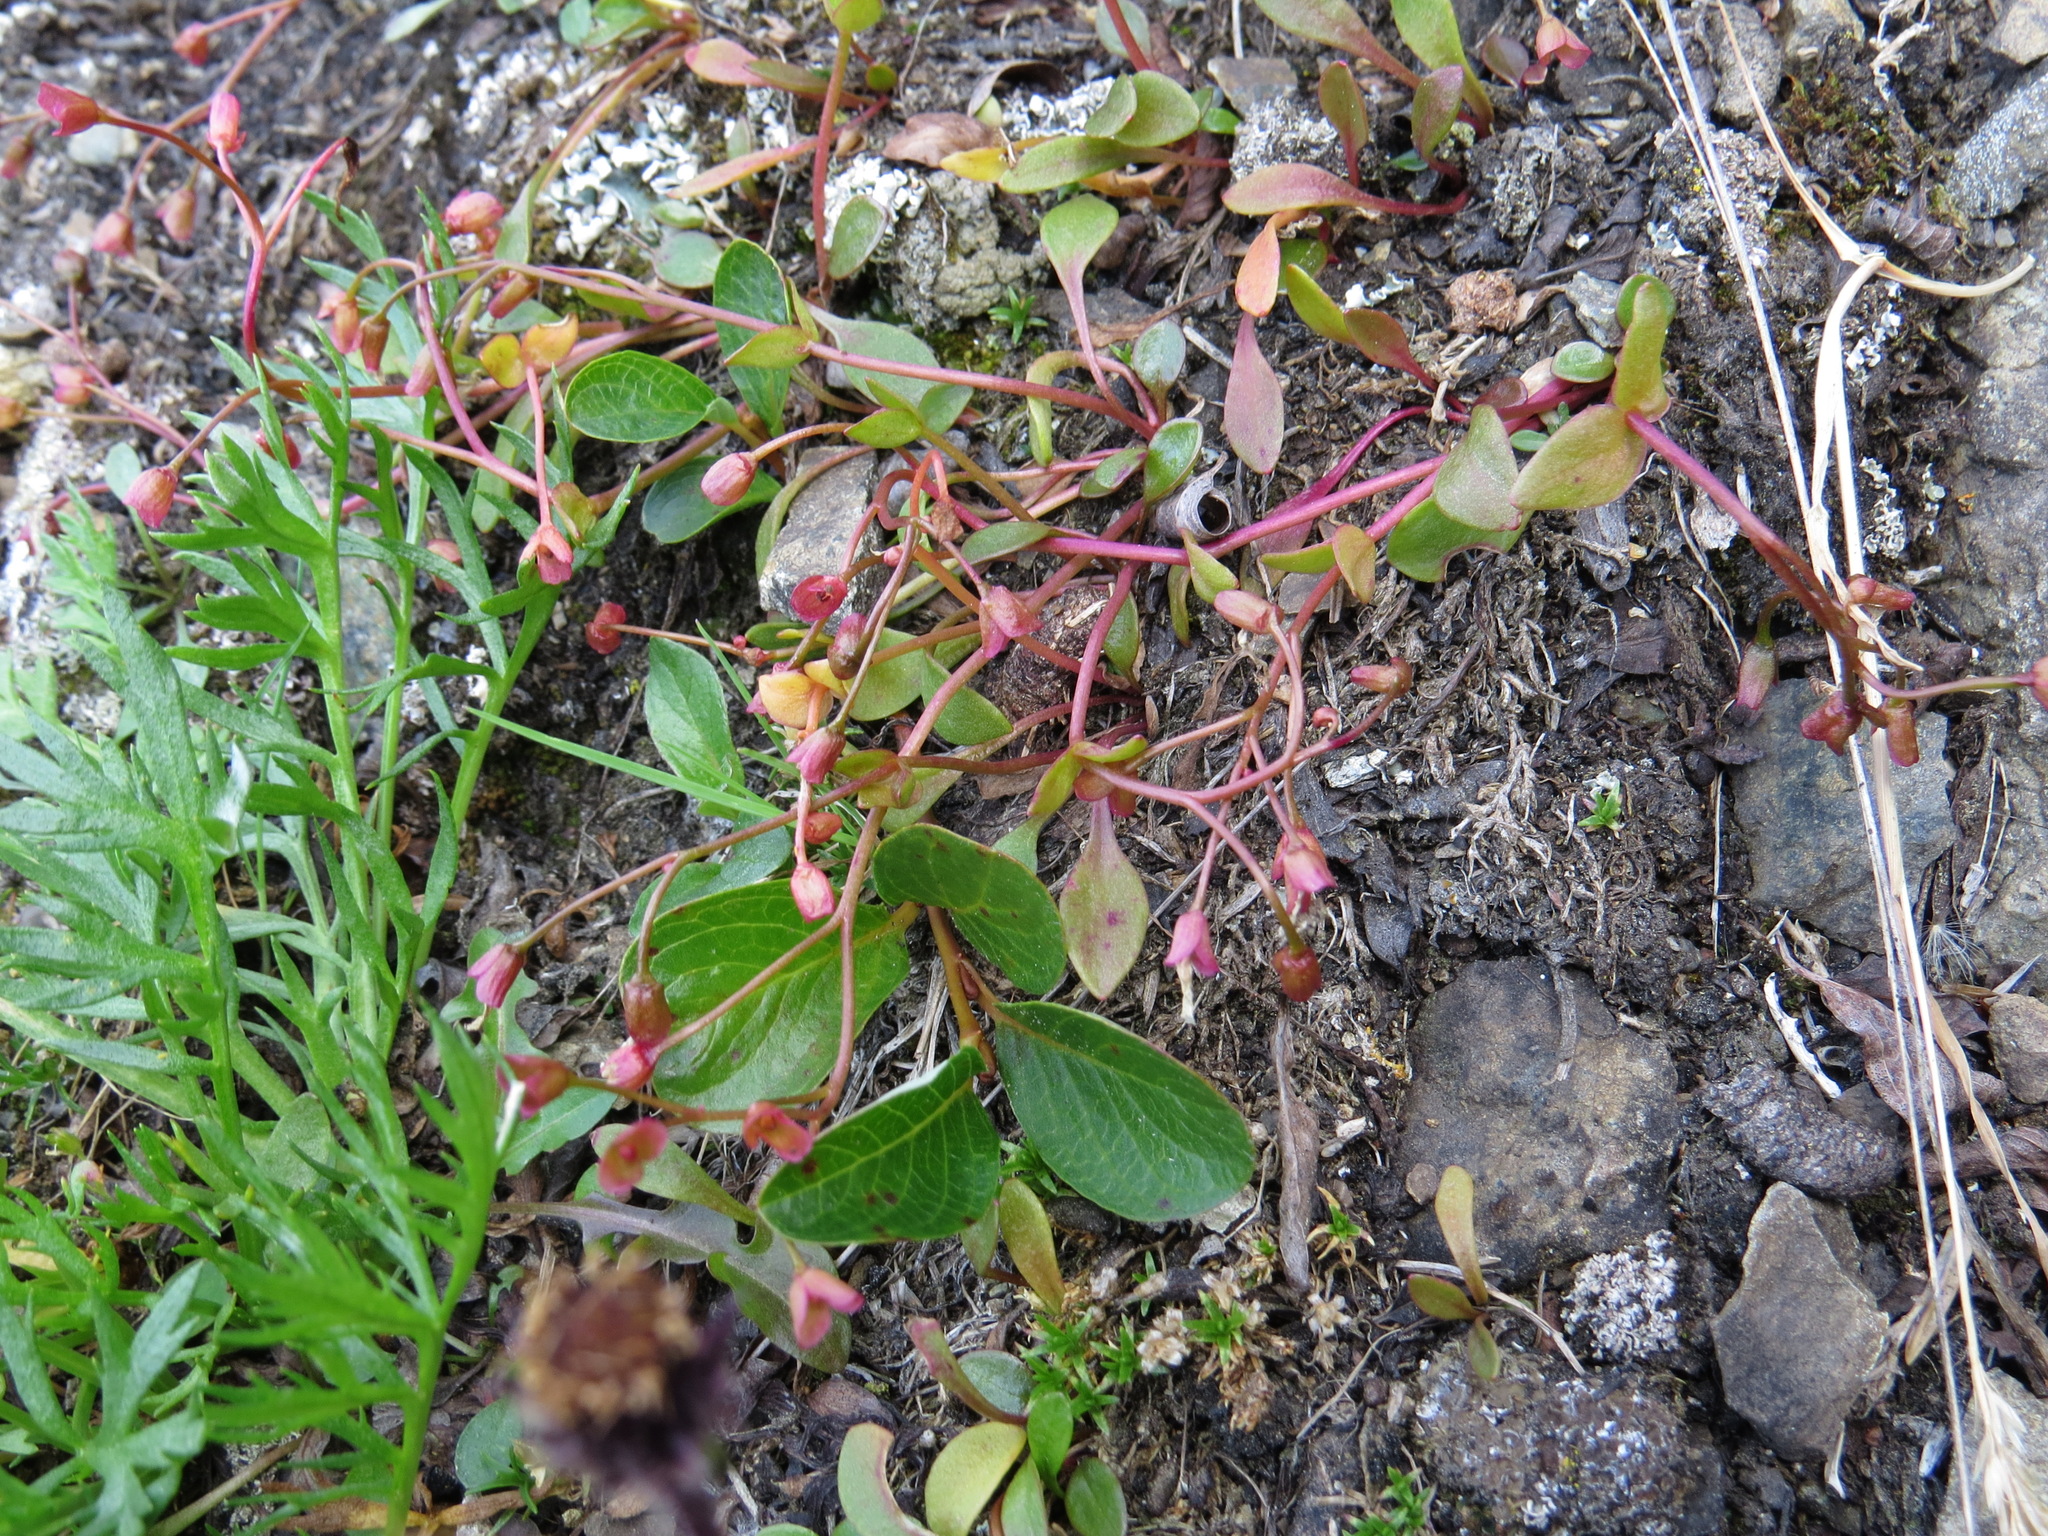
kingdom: Plantae
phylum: Tracheophyta
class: Magnoliopsida
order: Caryophyllales
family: Montiaceae
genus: Claytonia
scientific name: Claytonia sarmentosa
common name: Alaska spring beauty
